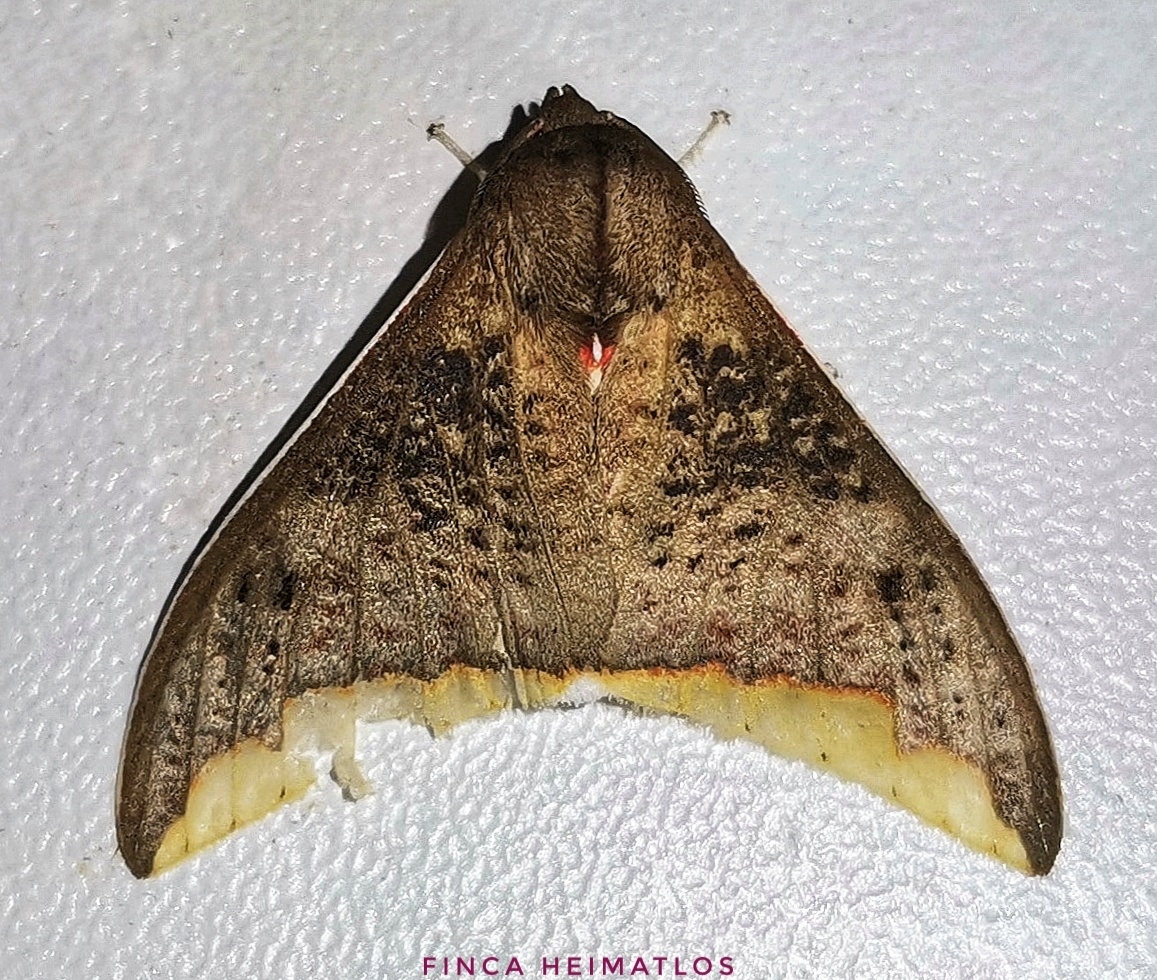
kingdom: Animalia
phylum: Arthropoda
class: Insecta
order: Lepidoptera
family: Erebidae
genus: Arctiarpia
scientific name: Arctiarpia mossi
